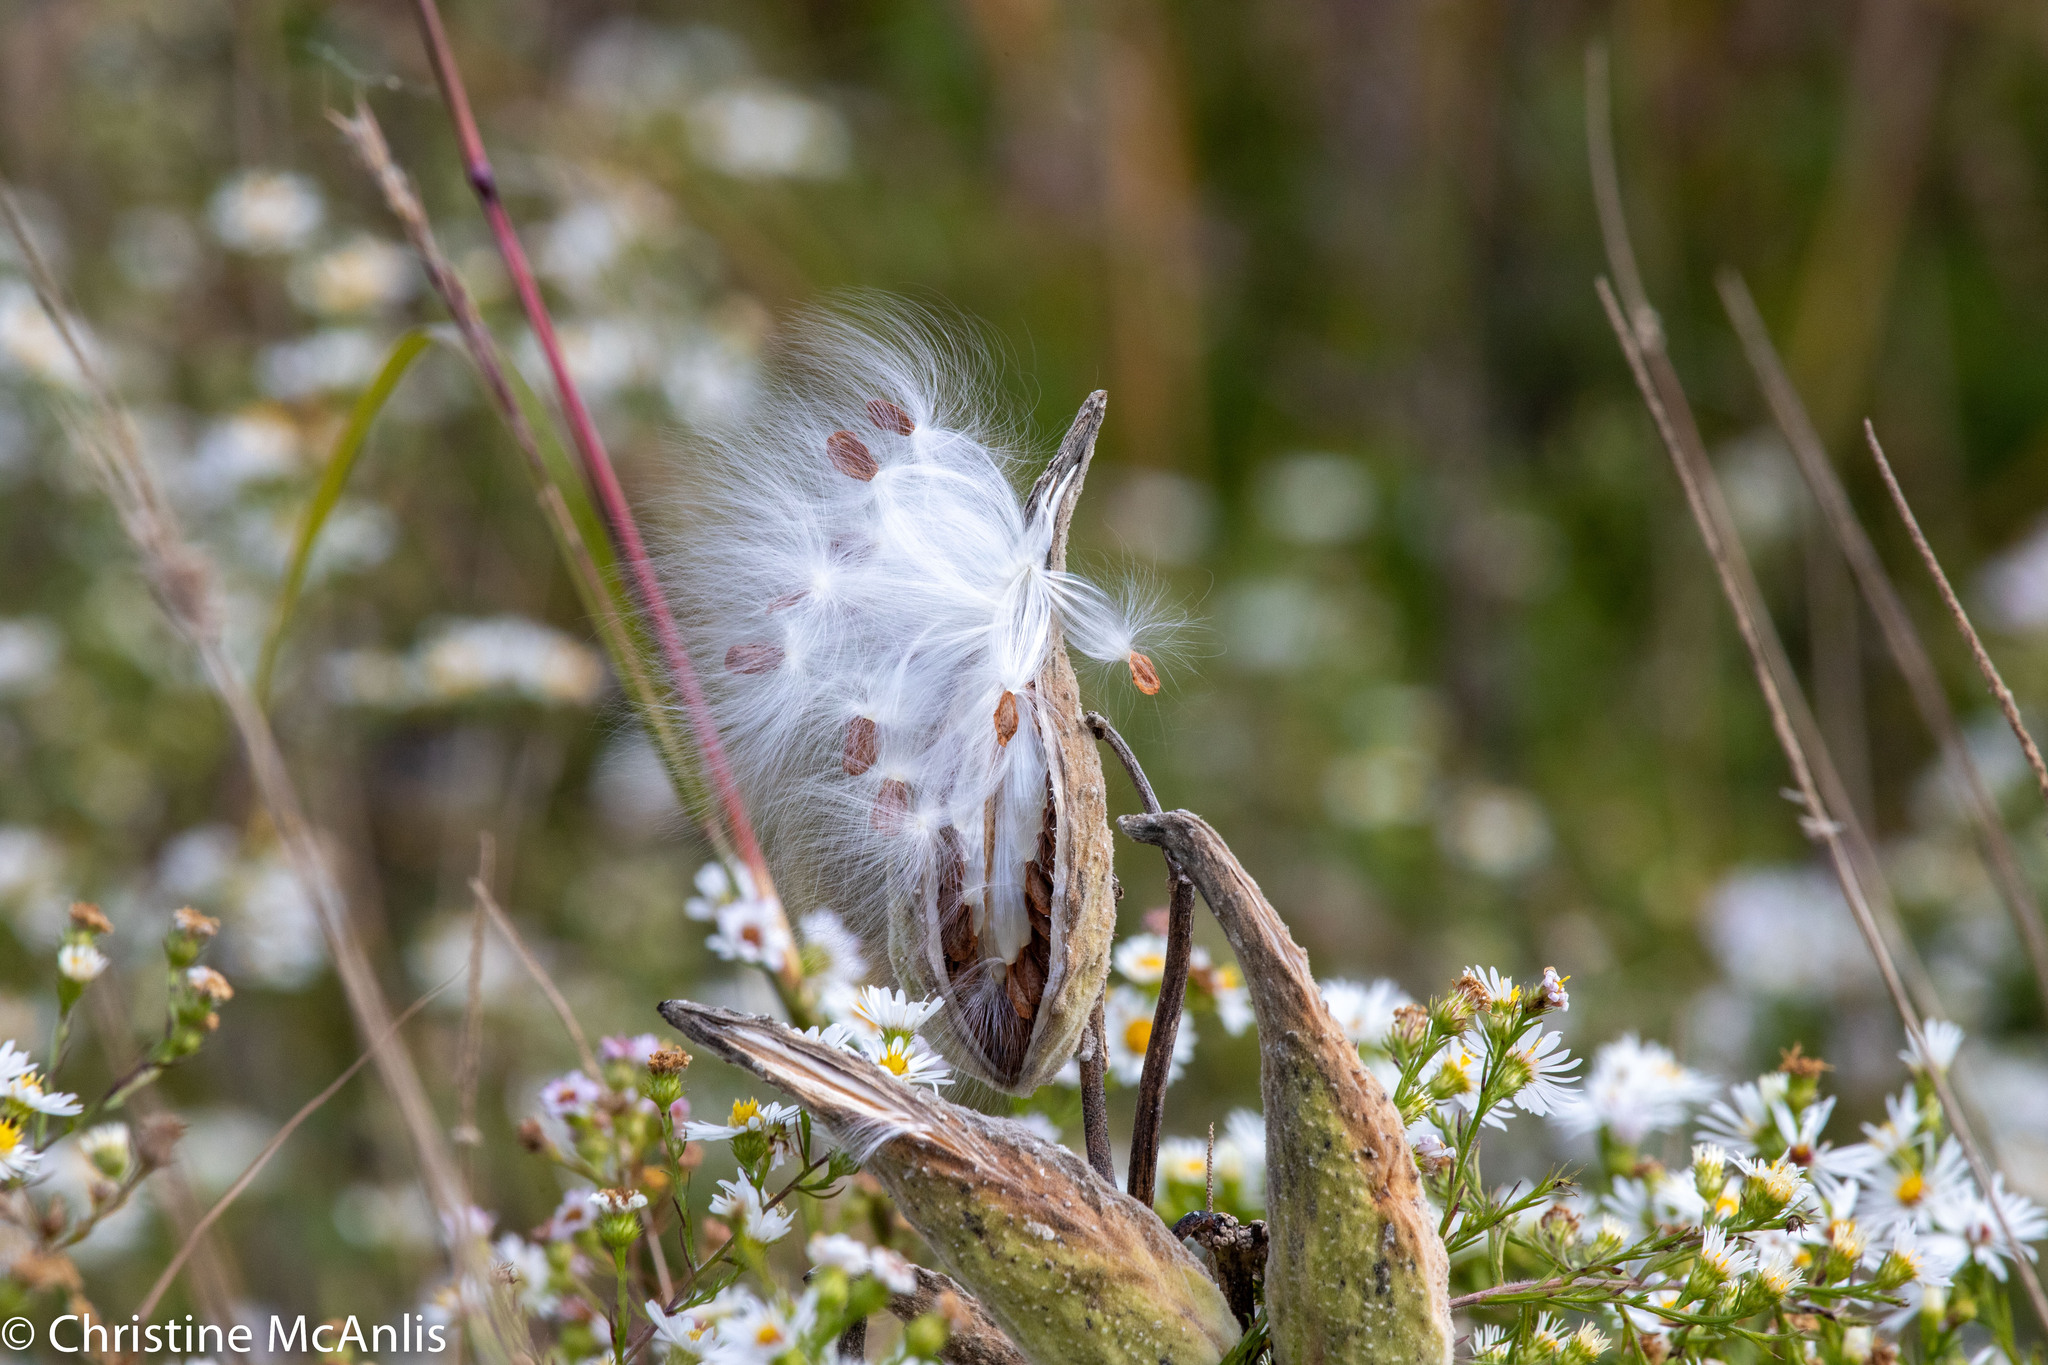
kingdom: Plantae
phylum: Tracheophyta
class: Magnoliopsida
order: Gentianales
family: Apocynaceae
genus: Asclepias
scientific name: Asclepias syriaca
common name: Common milkweed
